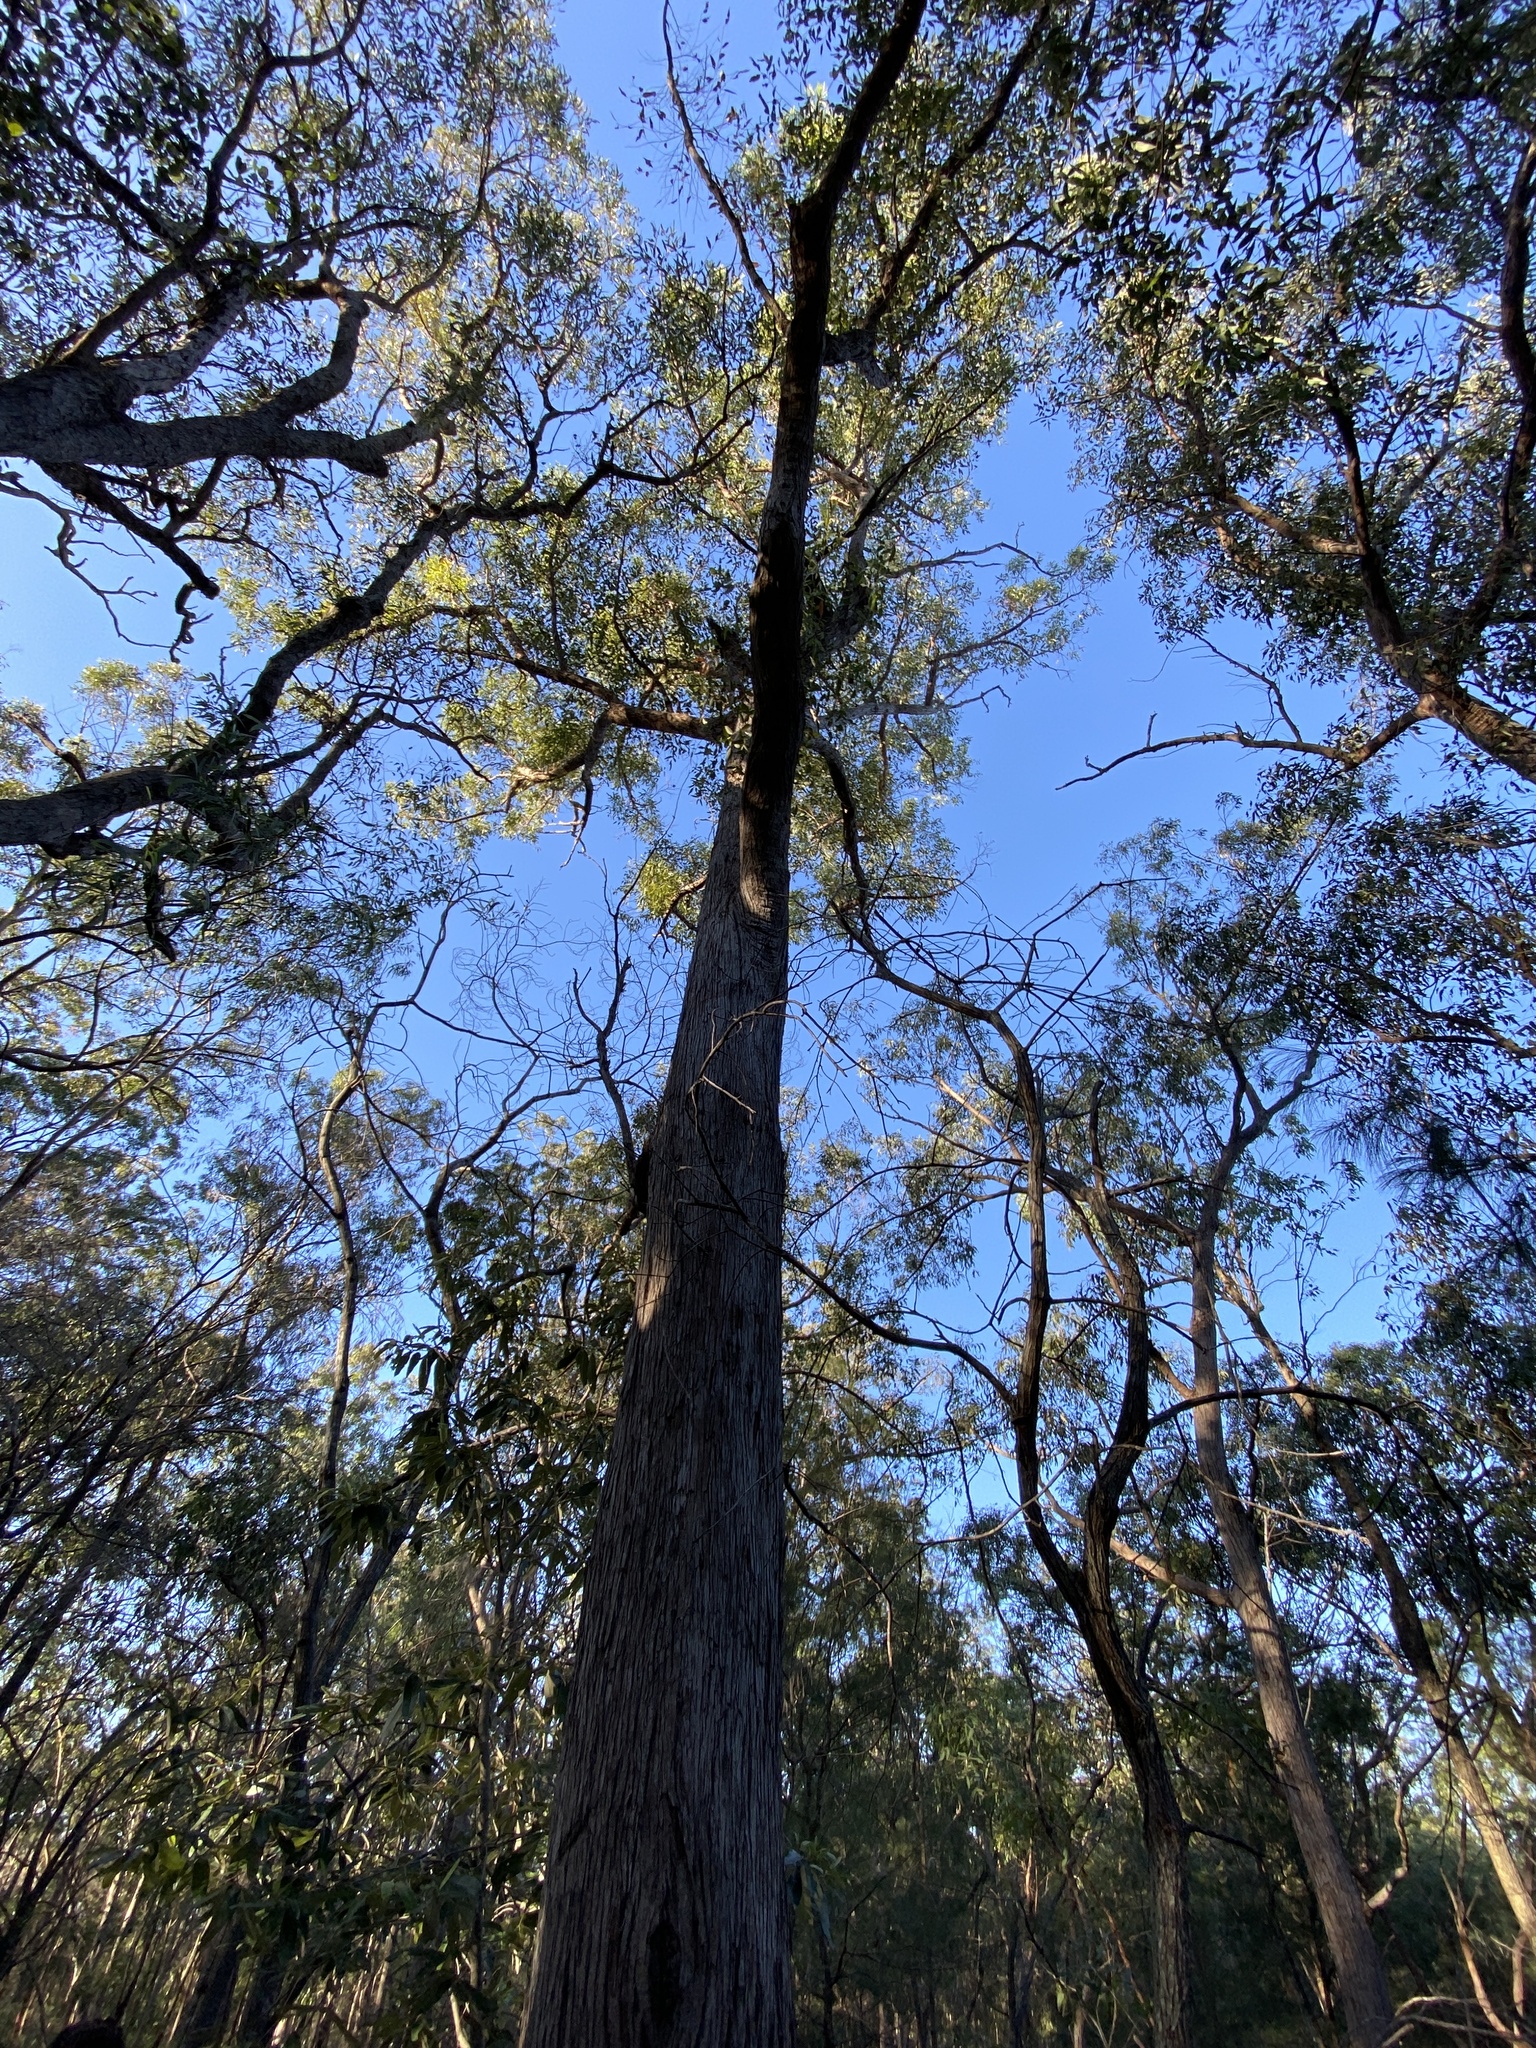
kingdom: Plantae
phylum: Tracheophyta
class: Magnoliopsida
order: Myrtales
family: Myrtaceae
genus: Eucalyptus
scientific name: Eucalyptus resinifera
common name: Red-mahogany
